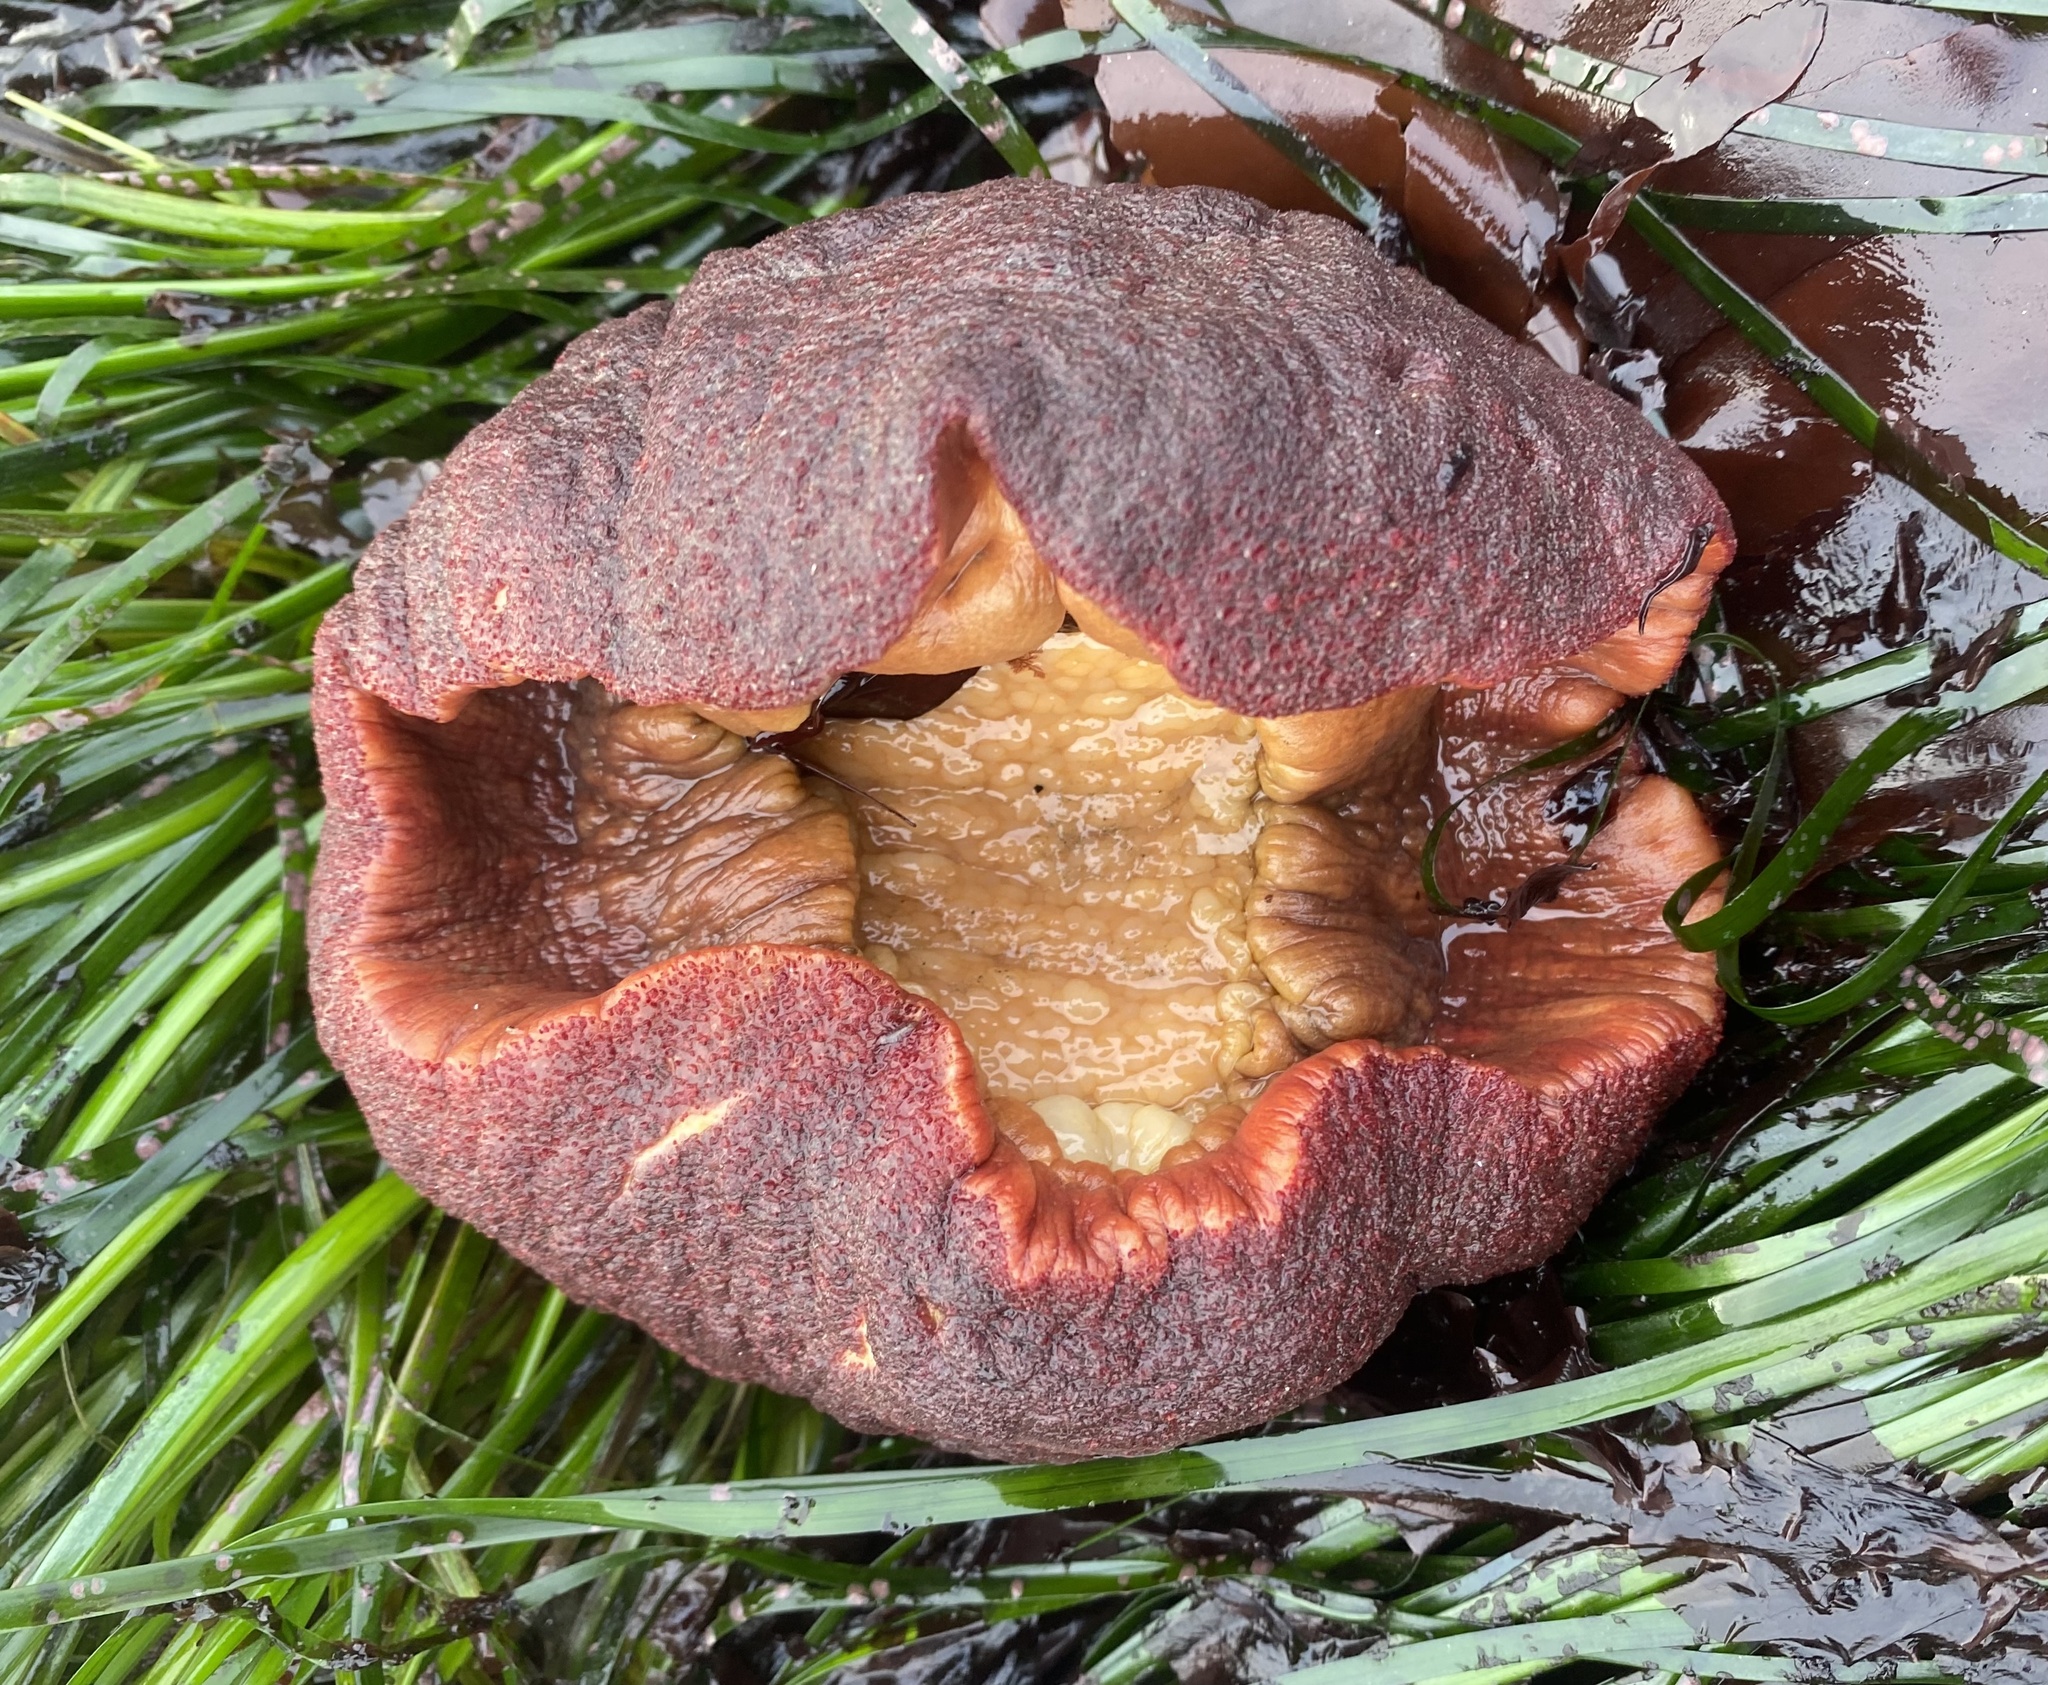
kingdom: Animalia
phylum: Mollusca
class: Polyplacophora
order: Chitonida
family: Acanthochitonidae
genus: Cryptochiton
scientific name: Cryptochiton stelleri
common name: Giant pacific chiton
